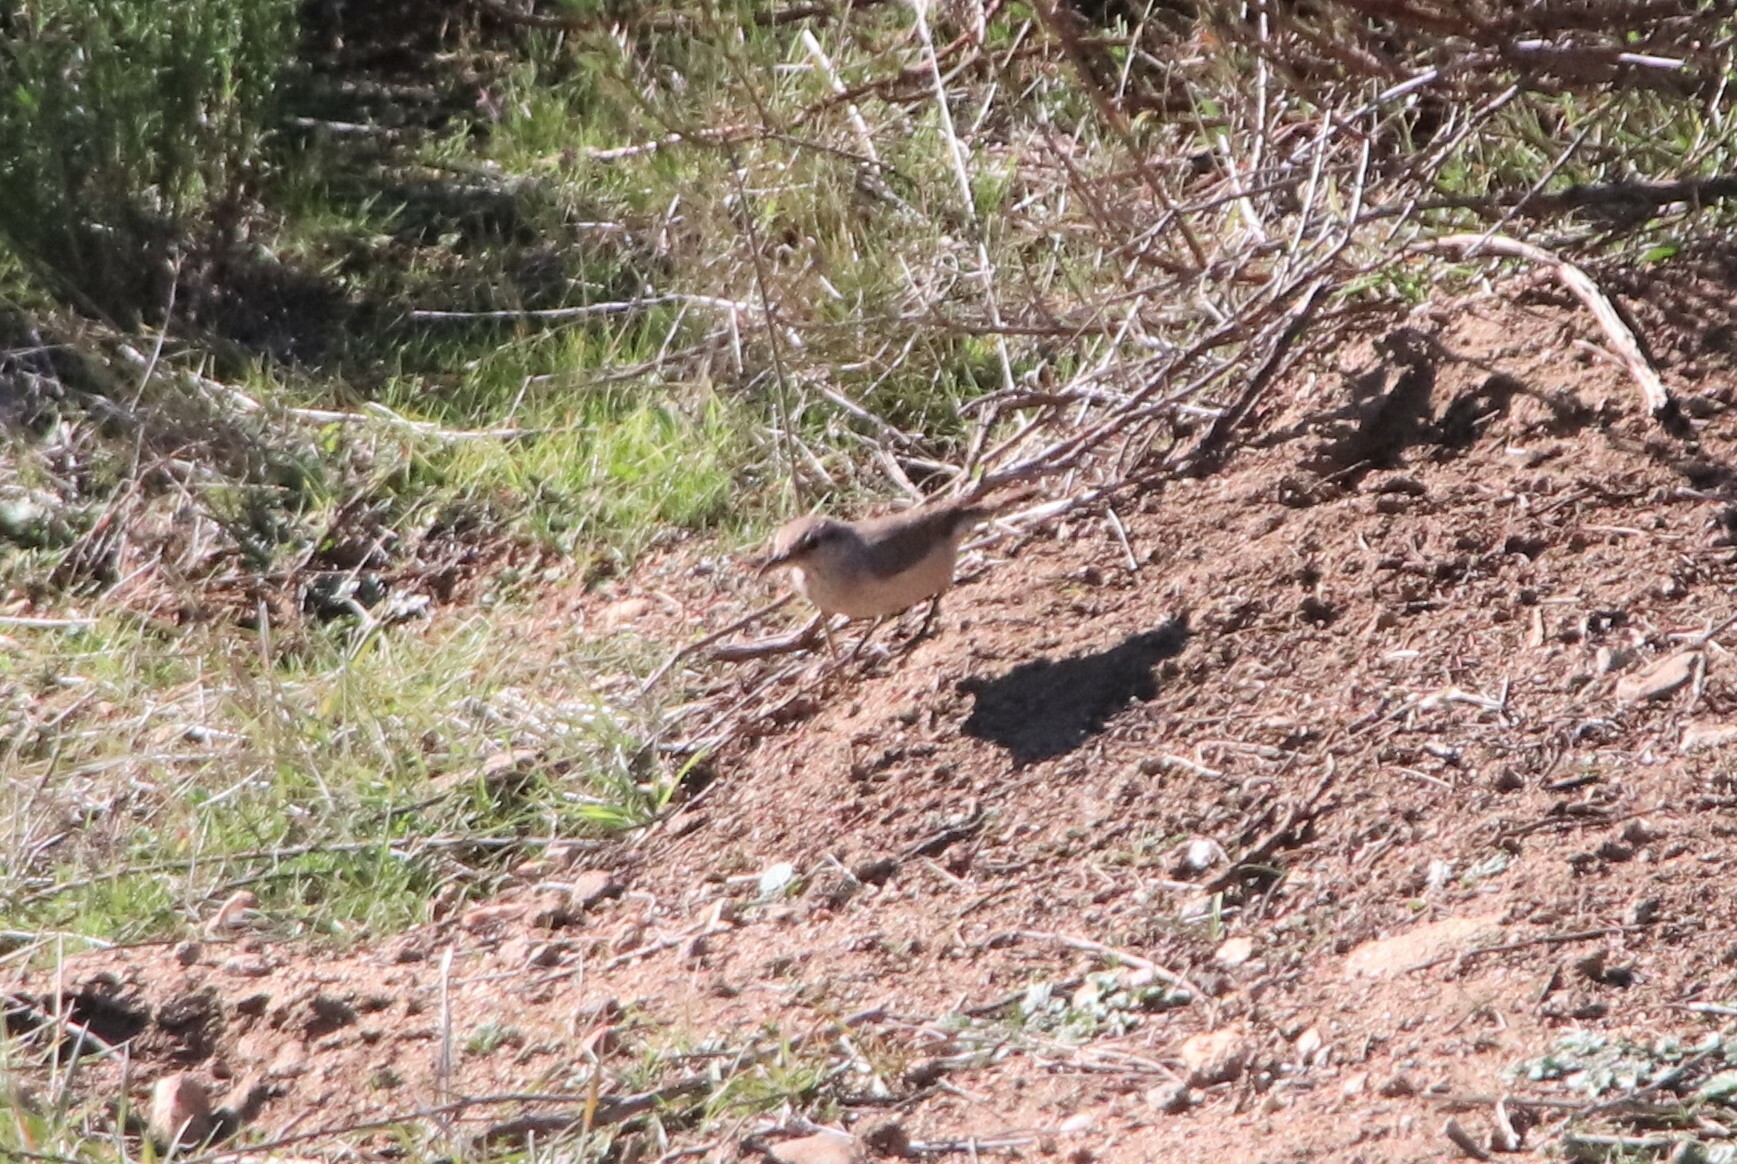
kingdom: Animalia
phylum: Chordata
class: Aves
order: Passeriformes
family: Troglodytidae
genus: Salpinctes
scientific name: Salpinctes obsoletus
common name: Rock wren
